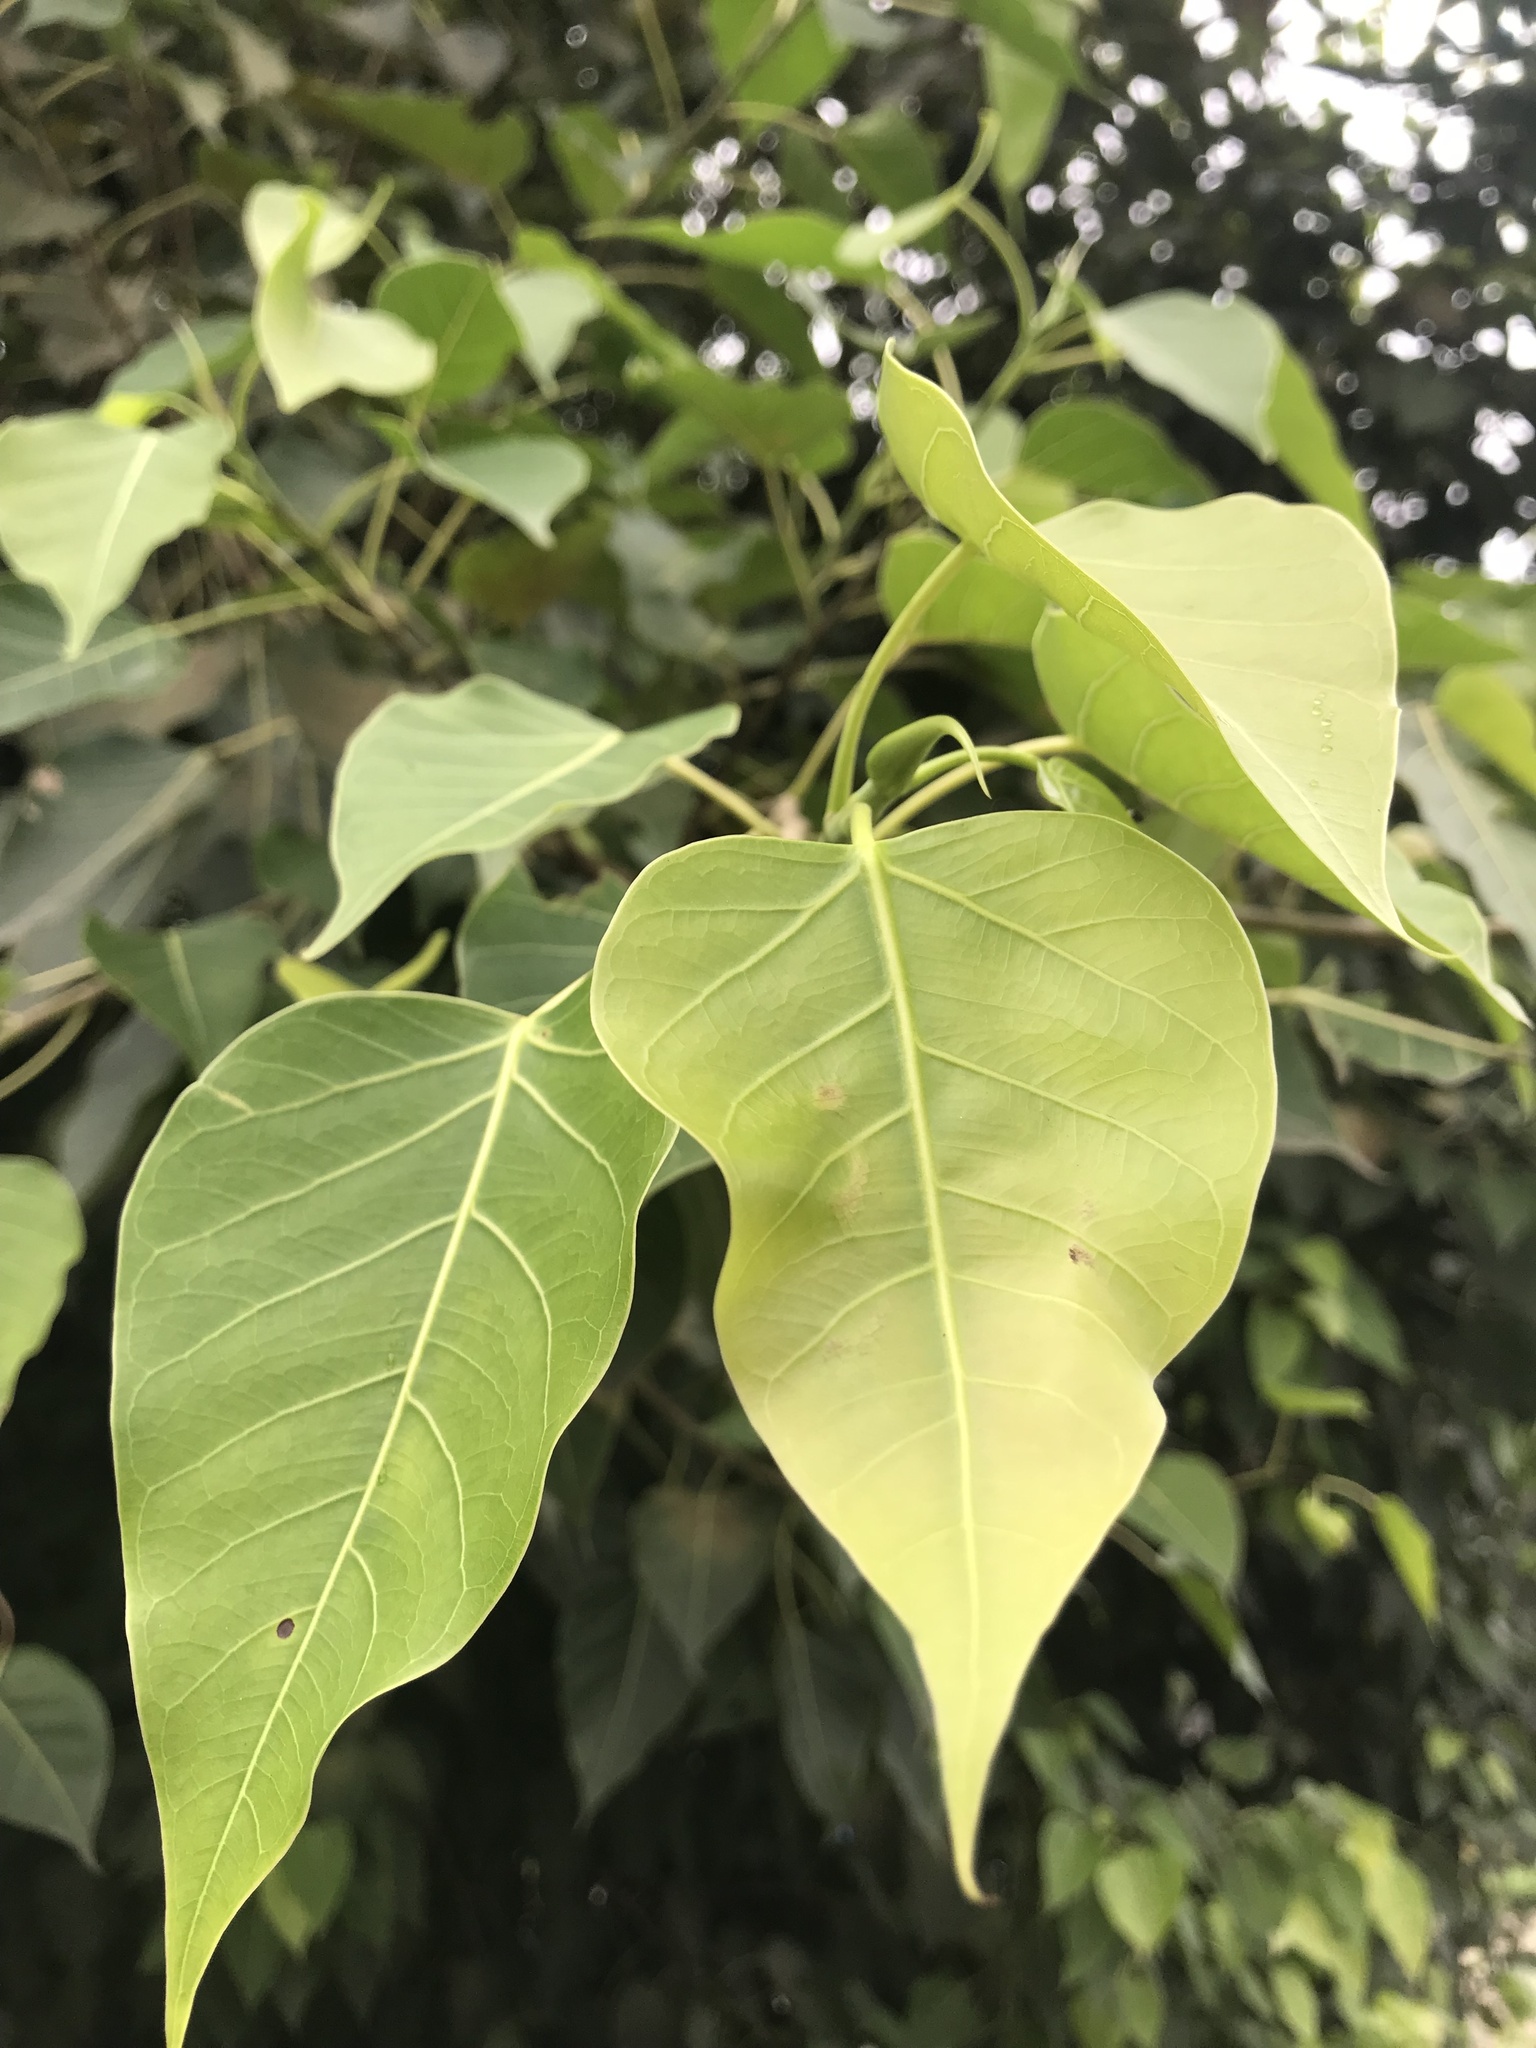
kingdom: Plantae
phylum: Tracheophyta
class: Magnoliopsida
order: Rosales
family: Moraceae
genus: Ficus
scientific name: Ficus rumphii
